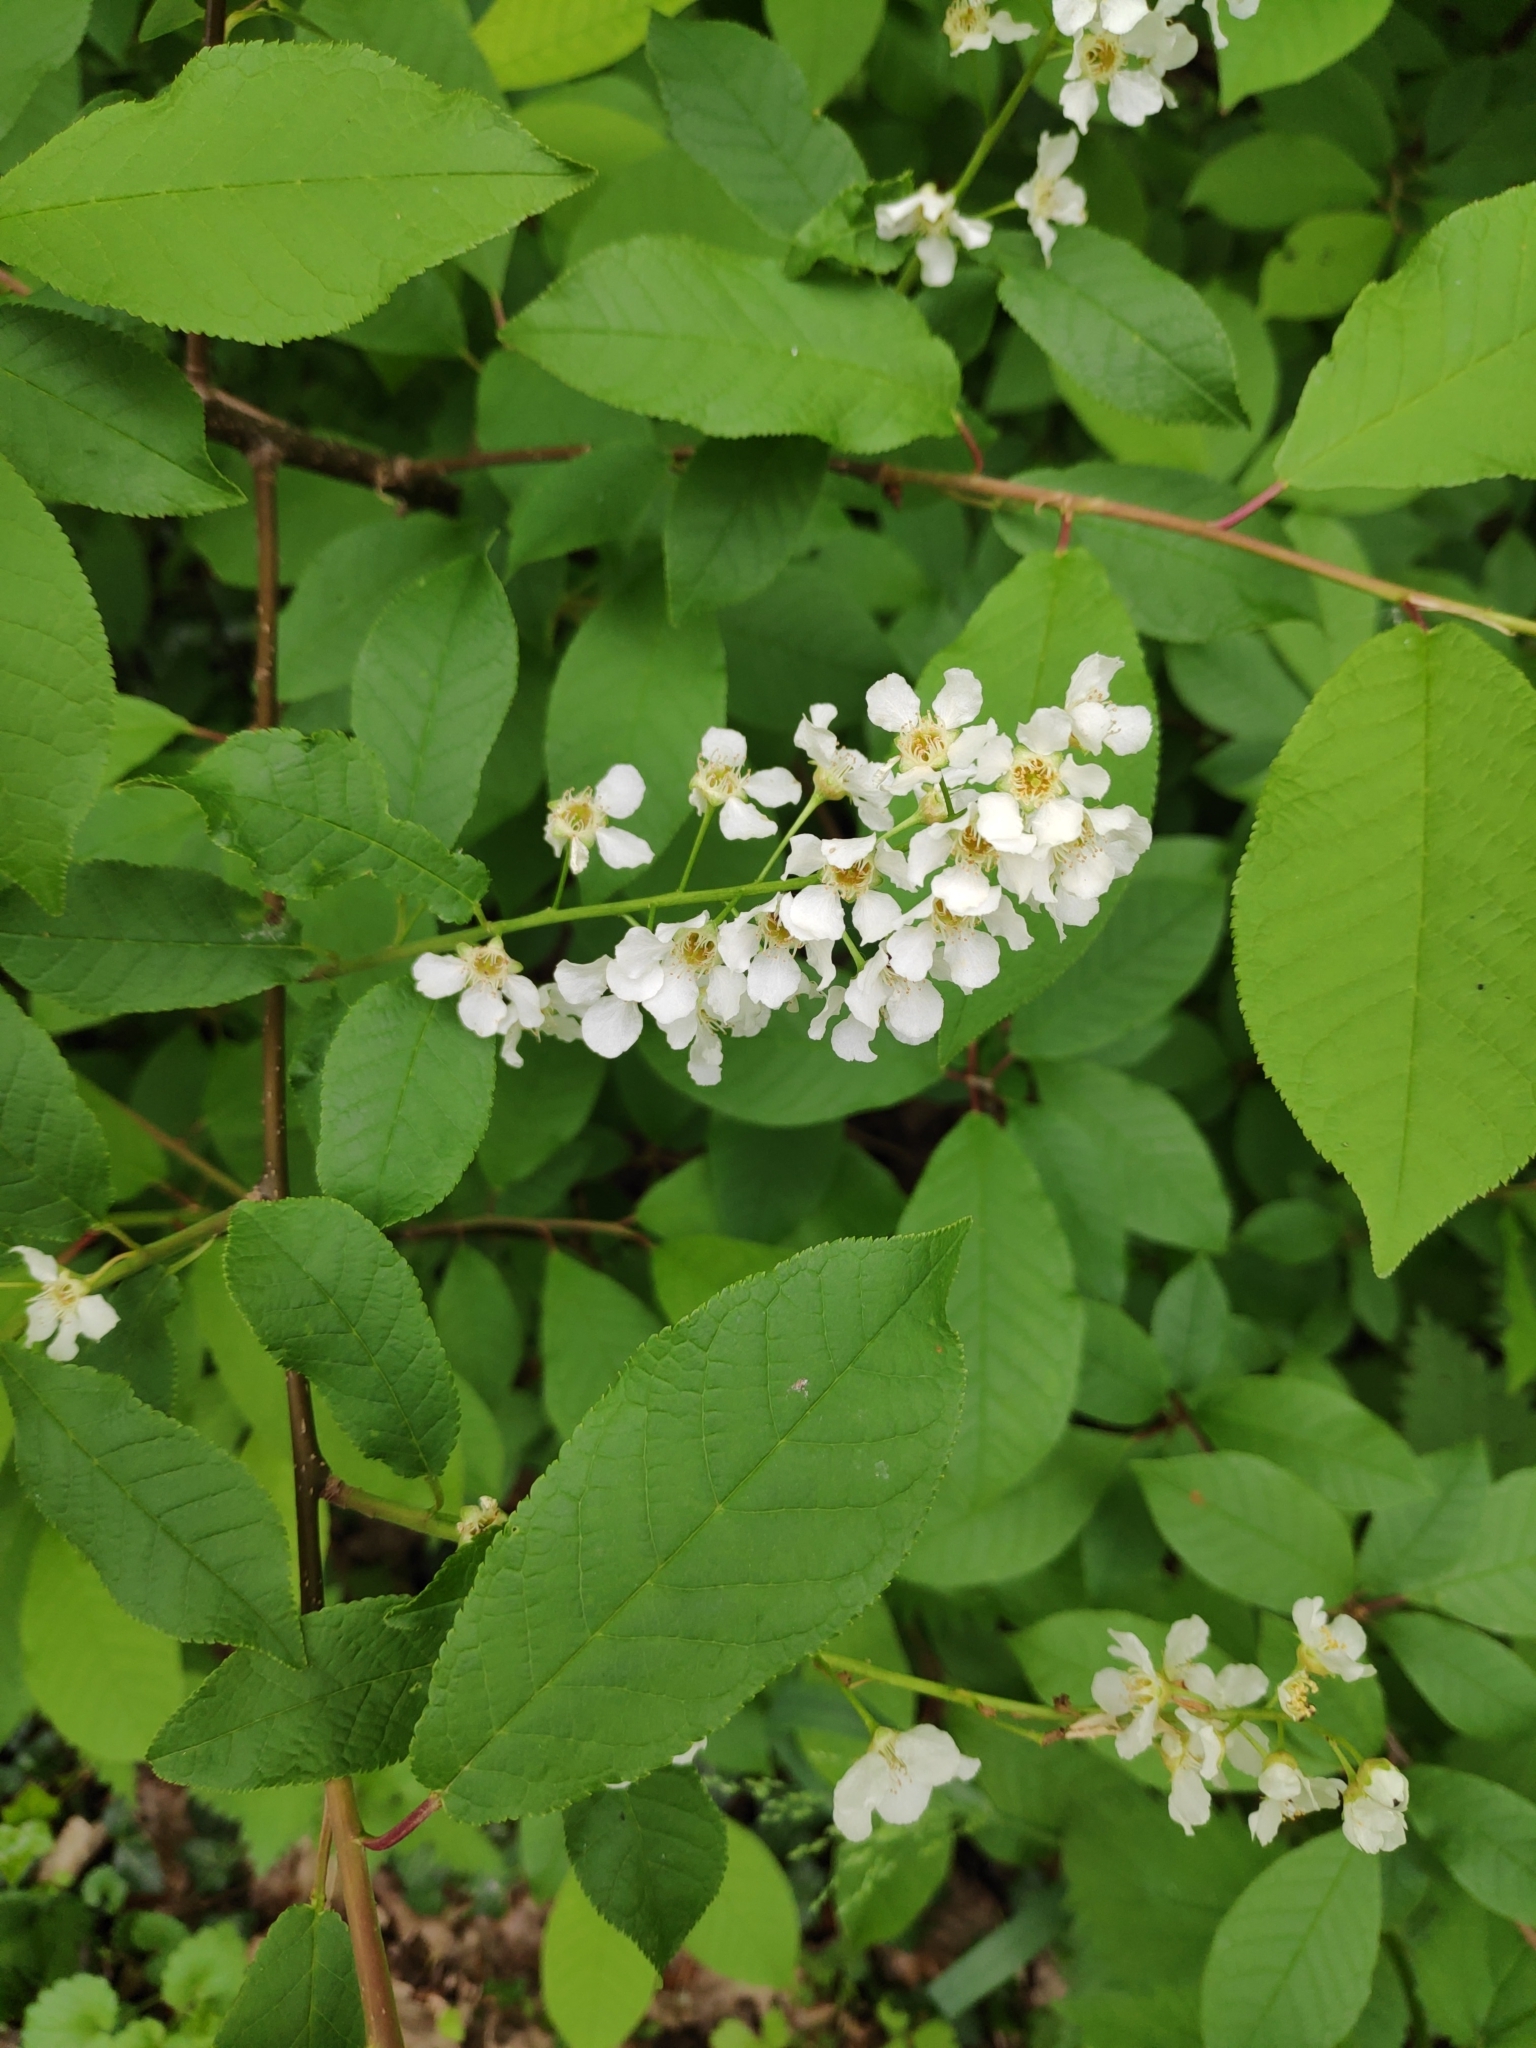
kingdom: Plantae
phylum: Tracheophyta
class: Magnoliopsida
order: Rosales
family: Rosaceae
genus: Prunus
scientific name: Prunus padus
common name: Bird cherry
